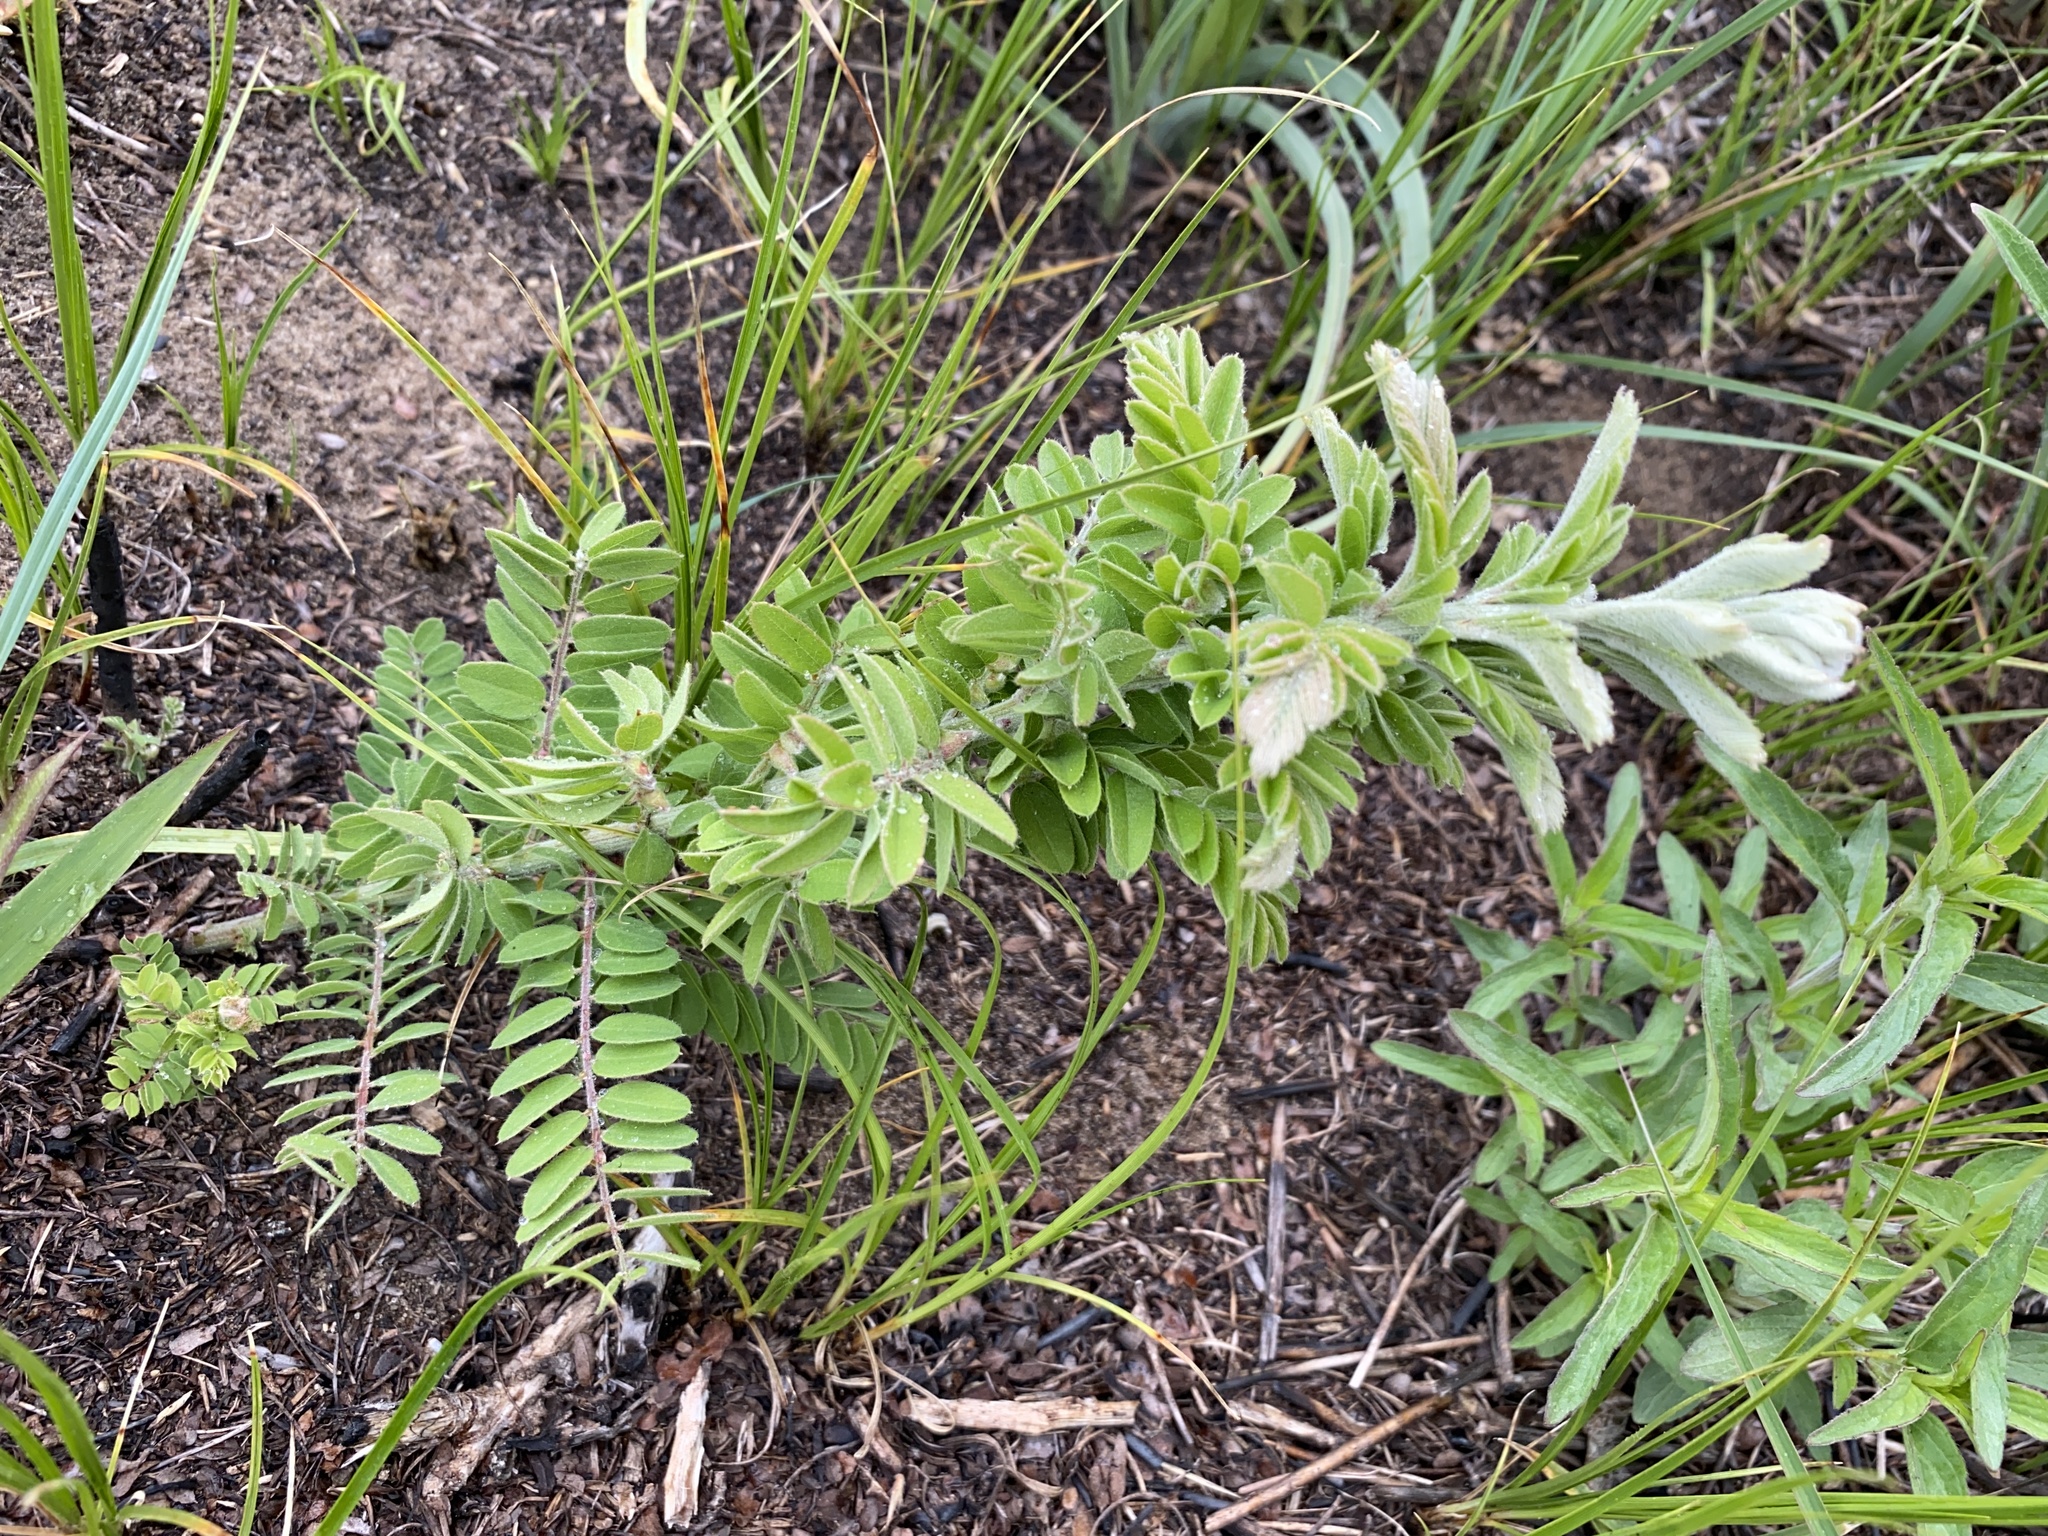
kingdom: Plantae
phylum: Tracheophyta
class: Magnoliopsida
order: Fabales
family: Fabaceae
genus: Amorpha
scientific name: Amorpha canescens
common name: Leadplant
